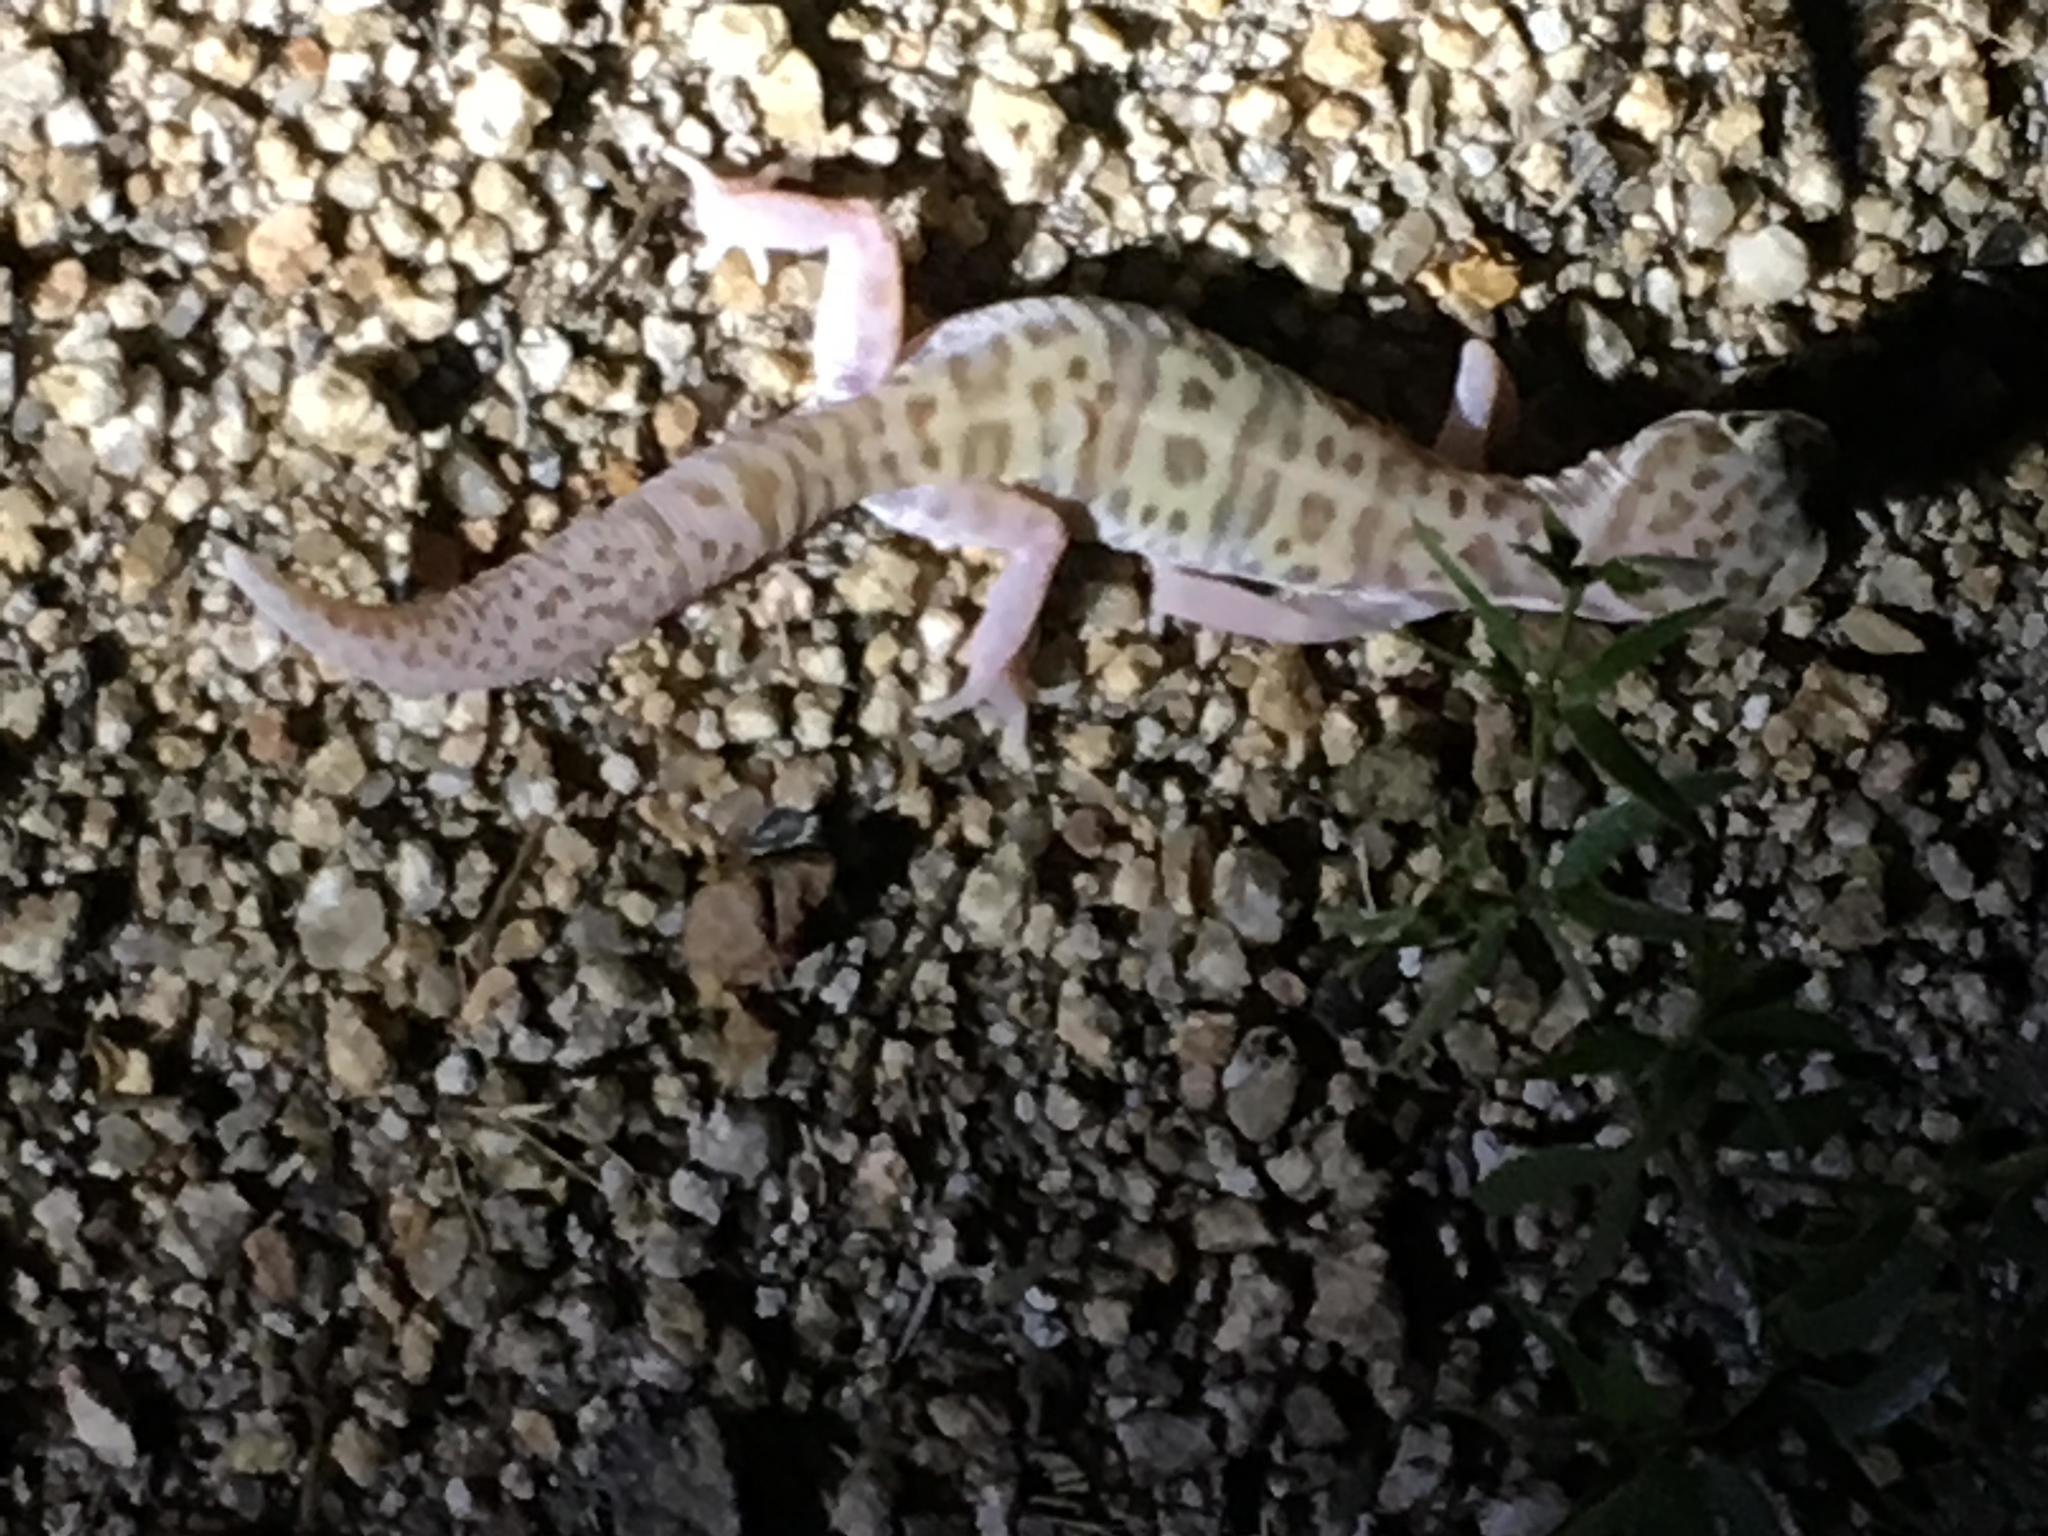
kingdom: Animalia
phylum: Chordata
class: Squamata
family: Eublepharidae
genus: Coleonyx
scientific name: Coleonyx variegatus
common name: Western banded gecko
